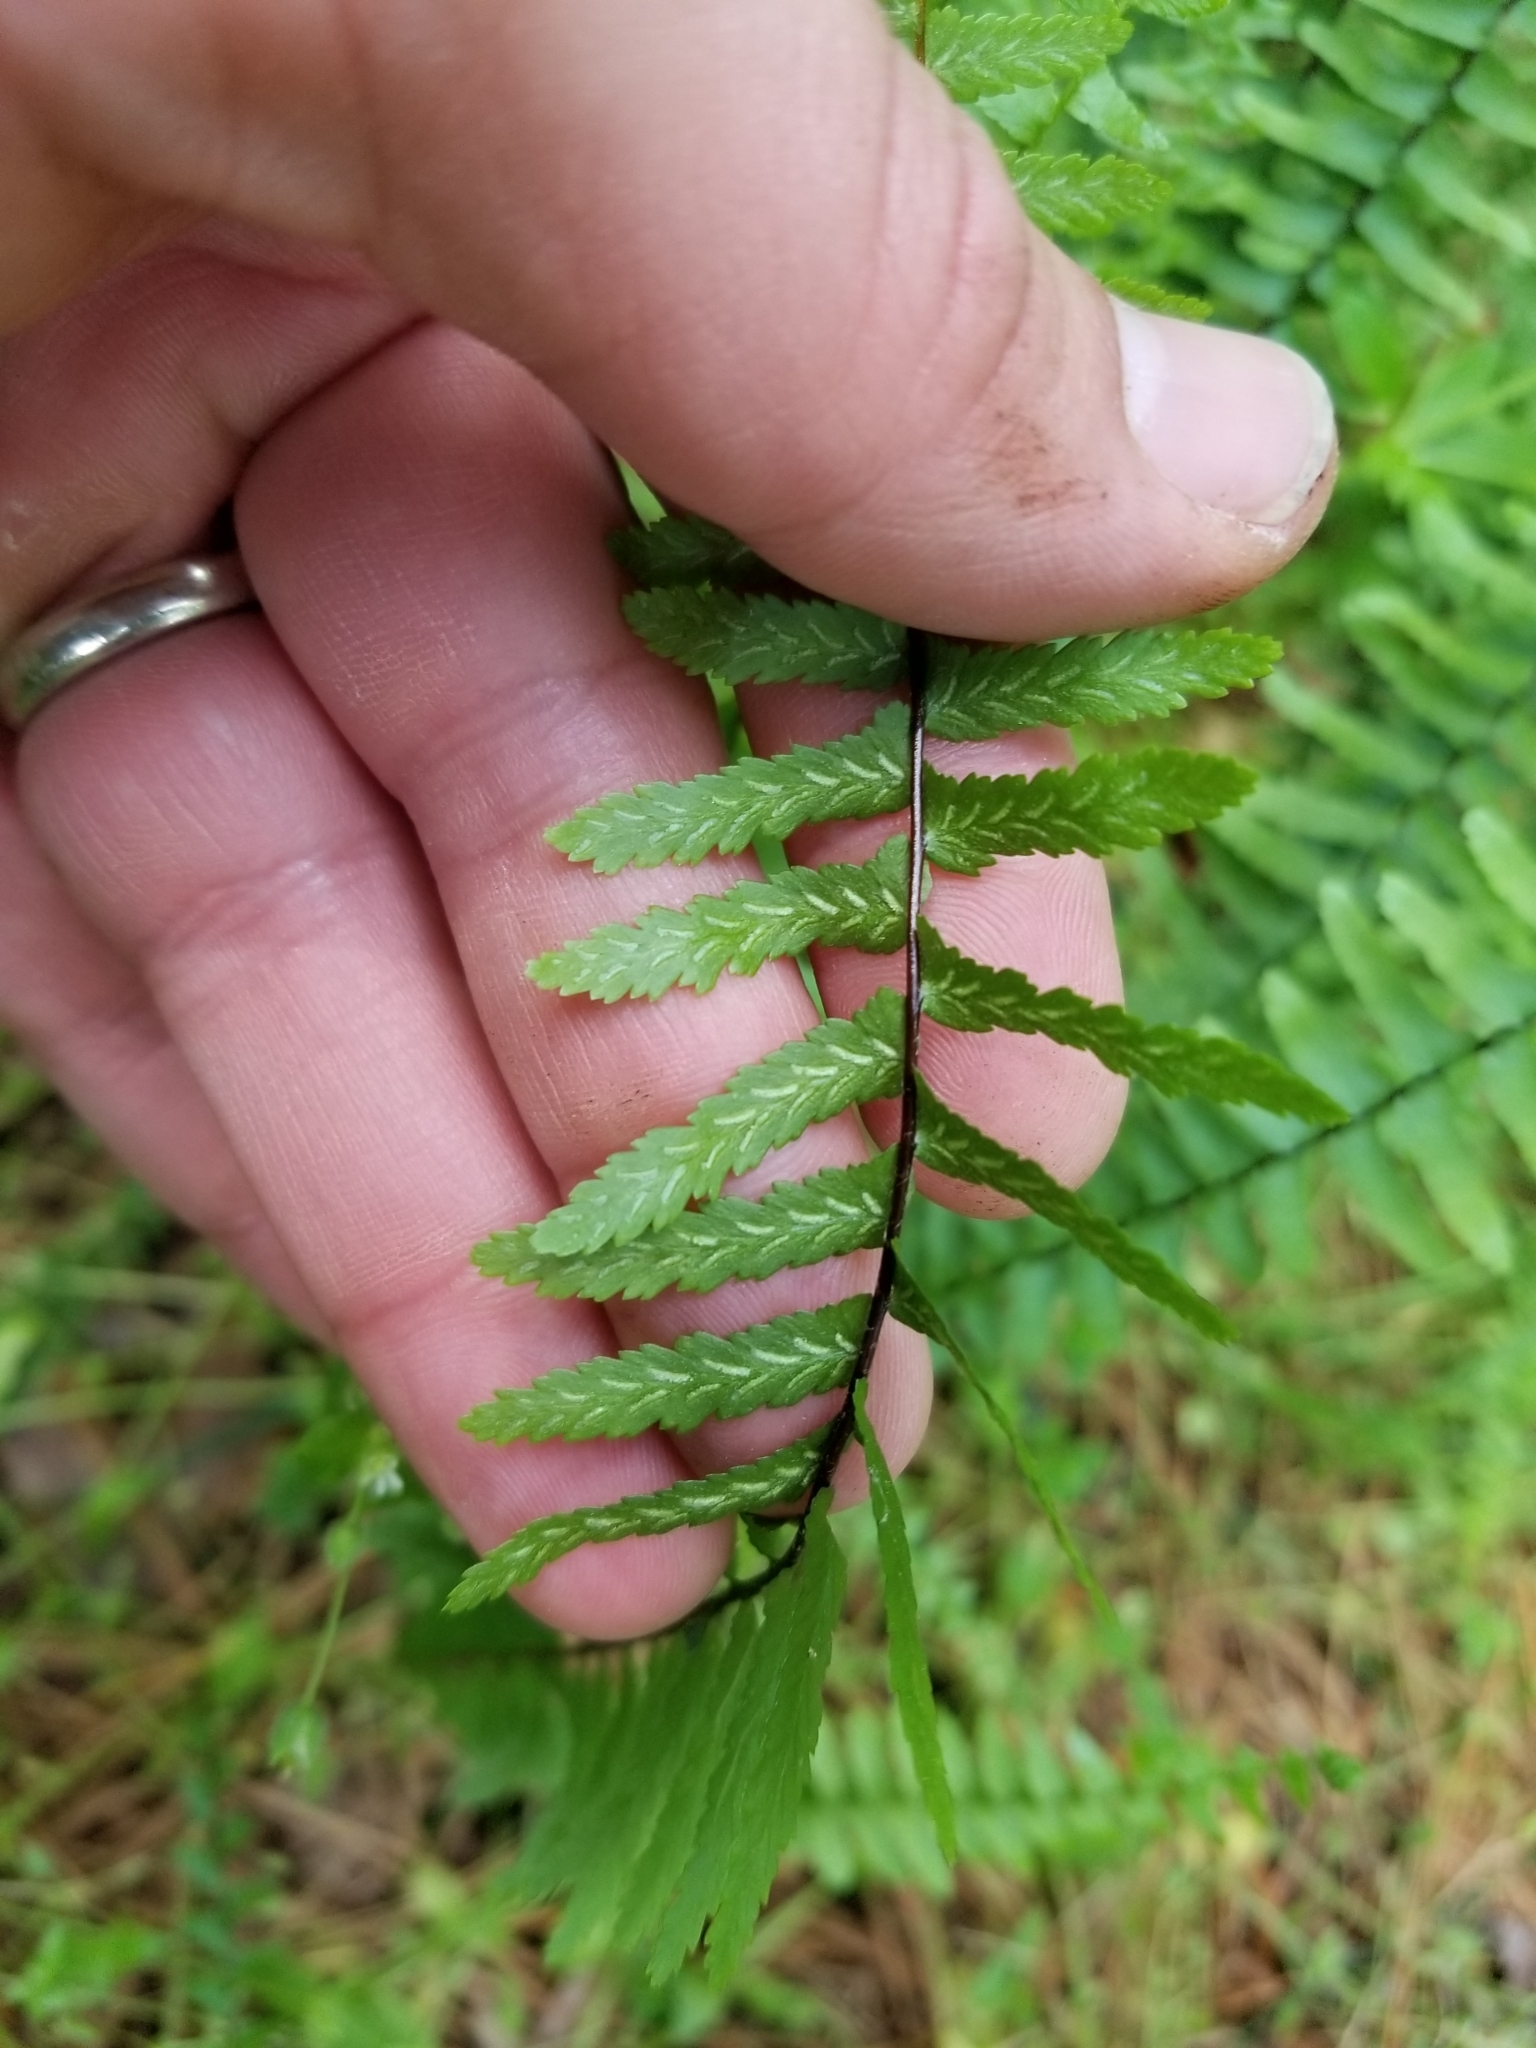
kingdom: Plantae
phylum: Tracheophyta
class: Polypodiopsida
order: Polypodiales
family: Aspleniaceae
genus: Asplenium
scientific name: Asplenium platyneuron
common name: Ebony spleenwort
